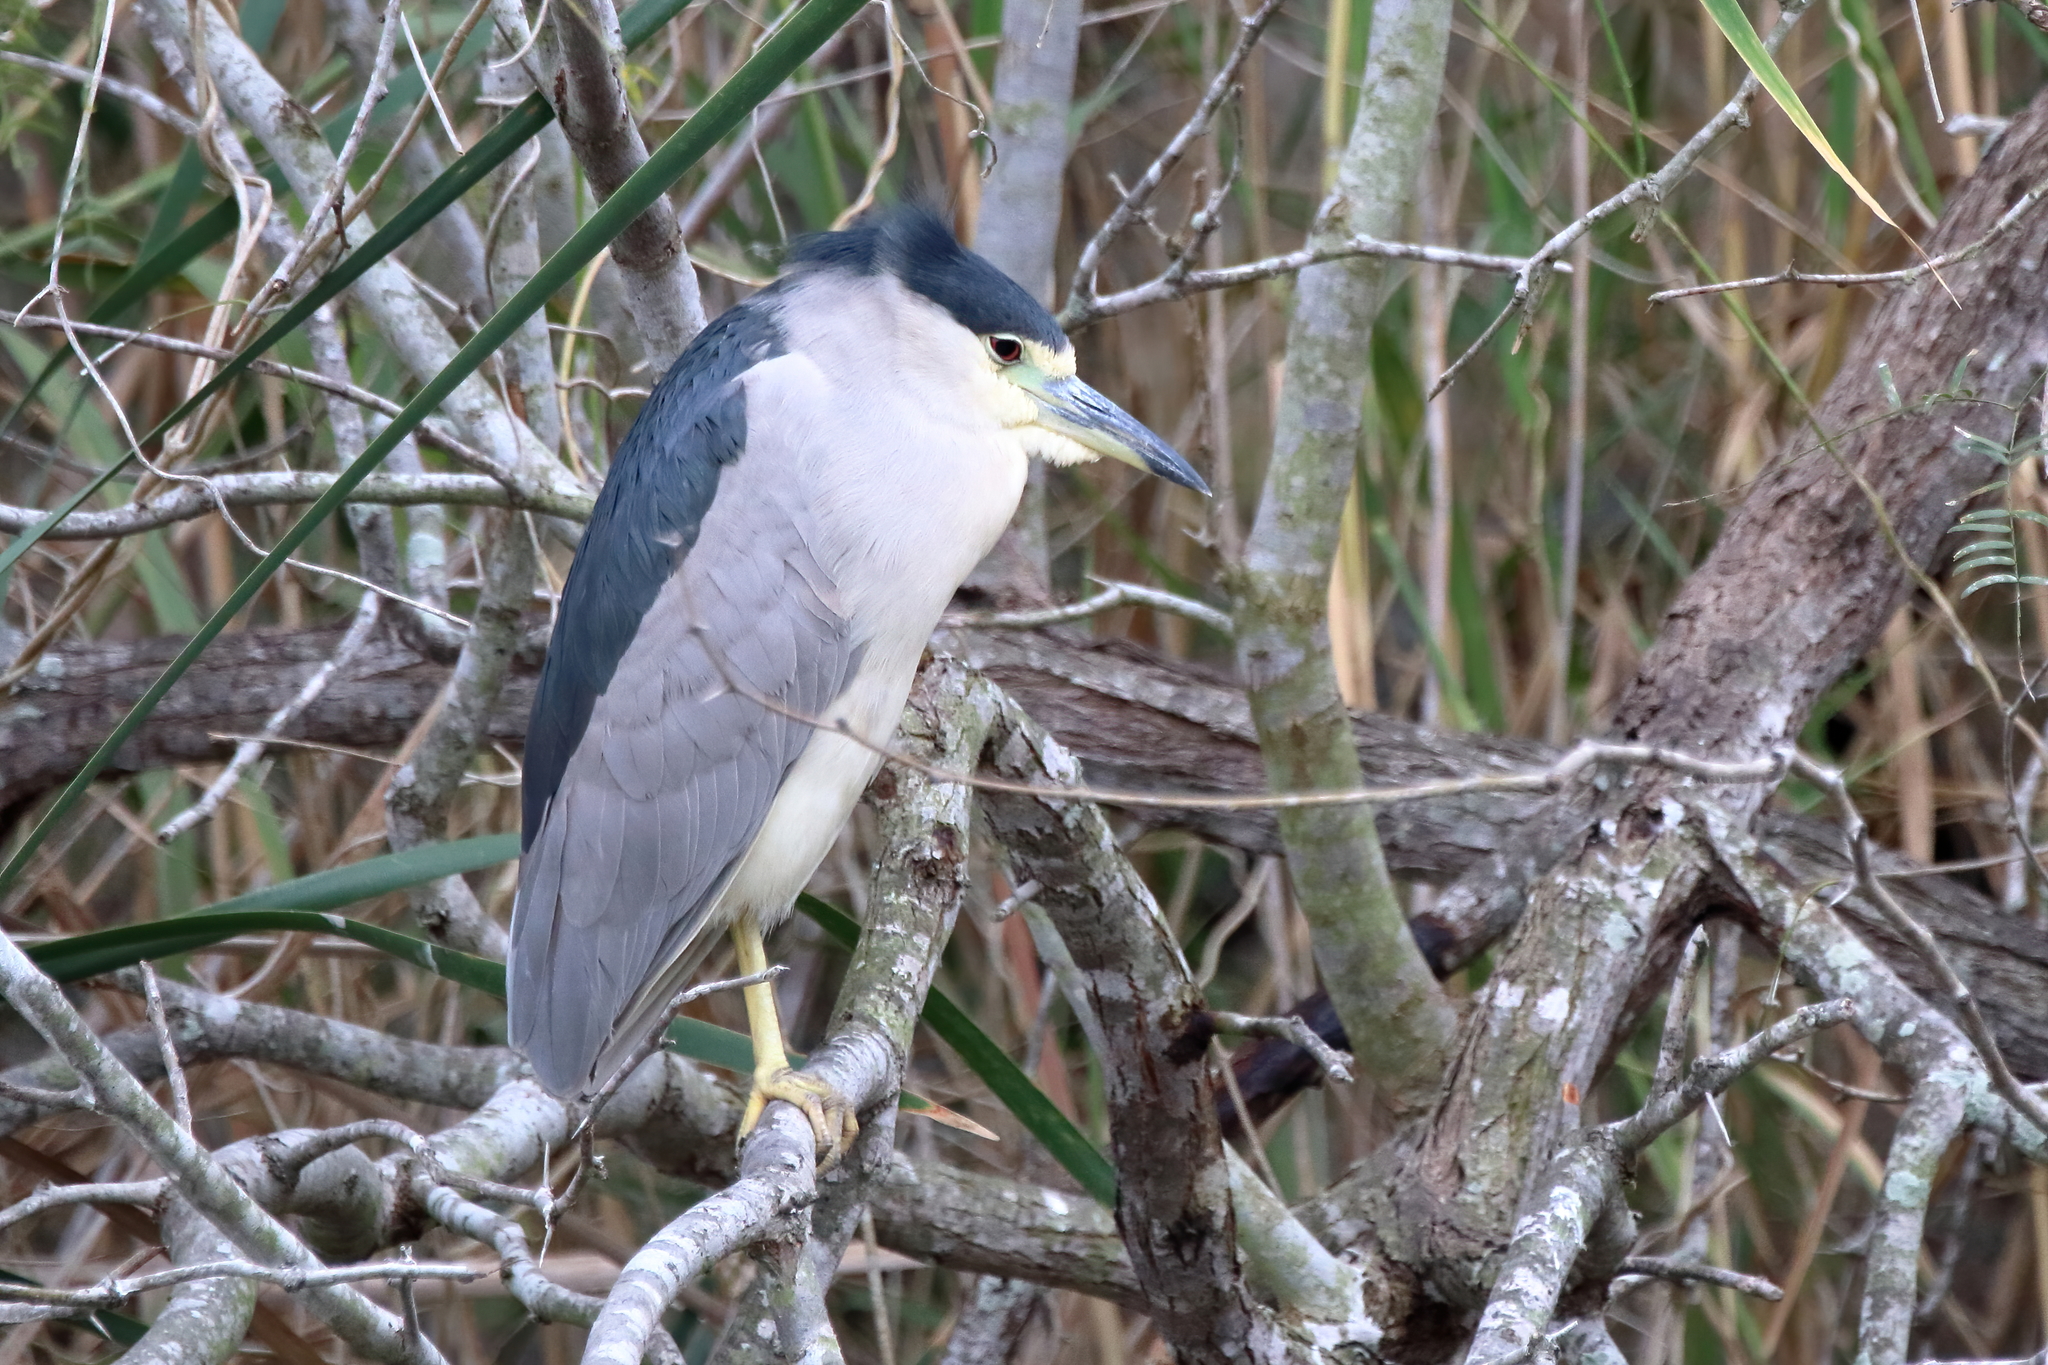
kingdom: Animalia
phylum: Chordata
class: Aves
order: Pelecaniformes
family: Ardeidae
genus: Nycticorax
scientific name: Nycticorax nycticorax
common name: Black-crowned night heron
